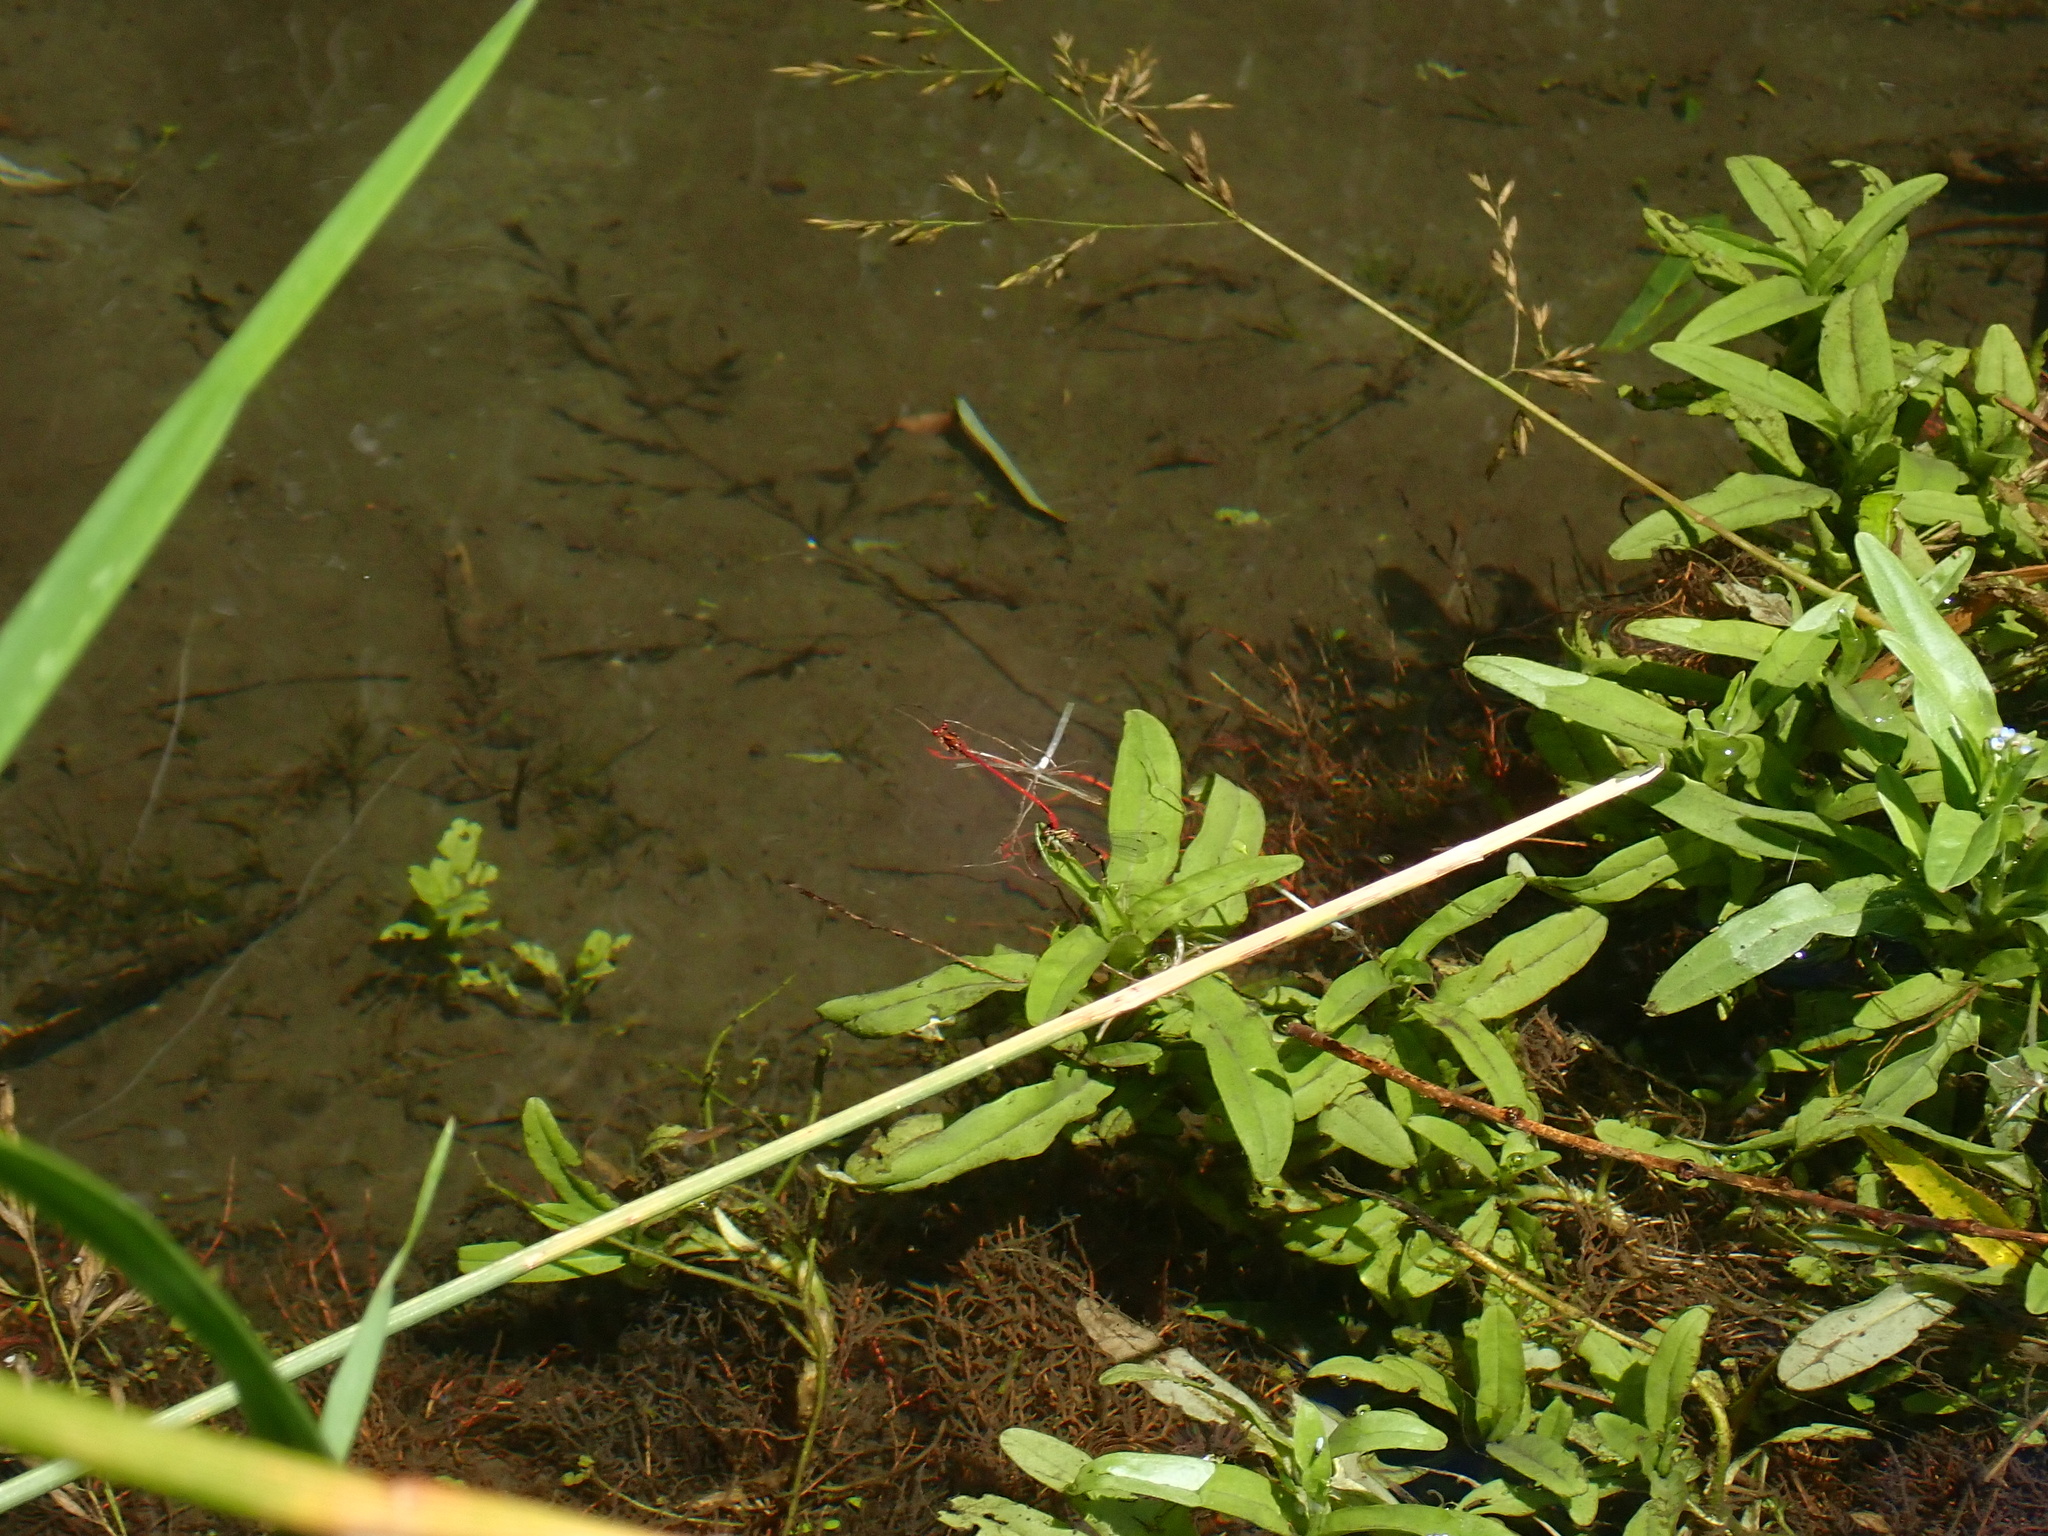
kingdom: Animalia
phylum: Arthropoda
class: Insecta
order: Odonata
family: Coenagrionidae
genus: Xanthocnemis
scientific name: Xanthocnemis zealandica
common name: Common redcoat damselfly
